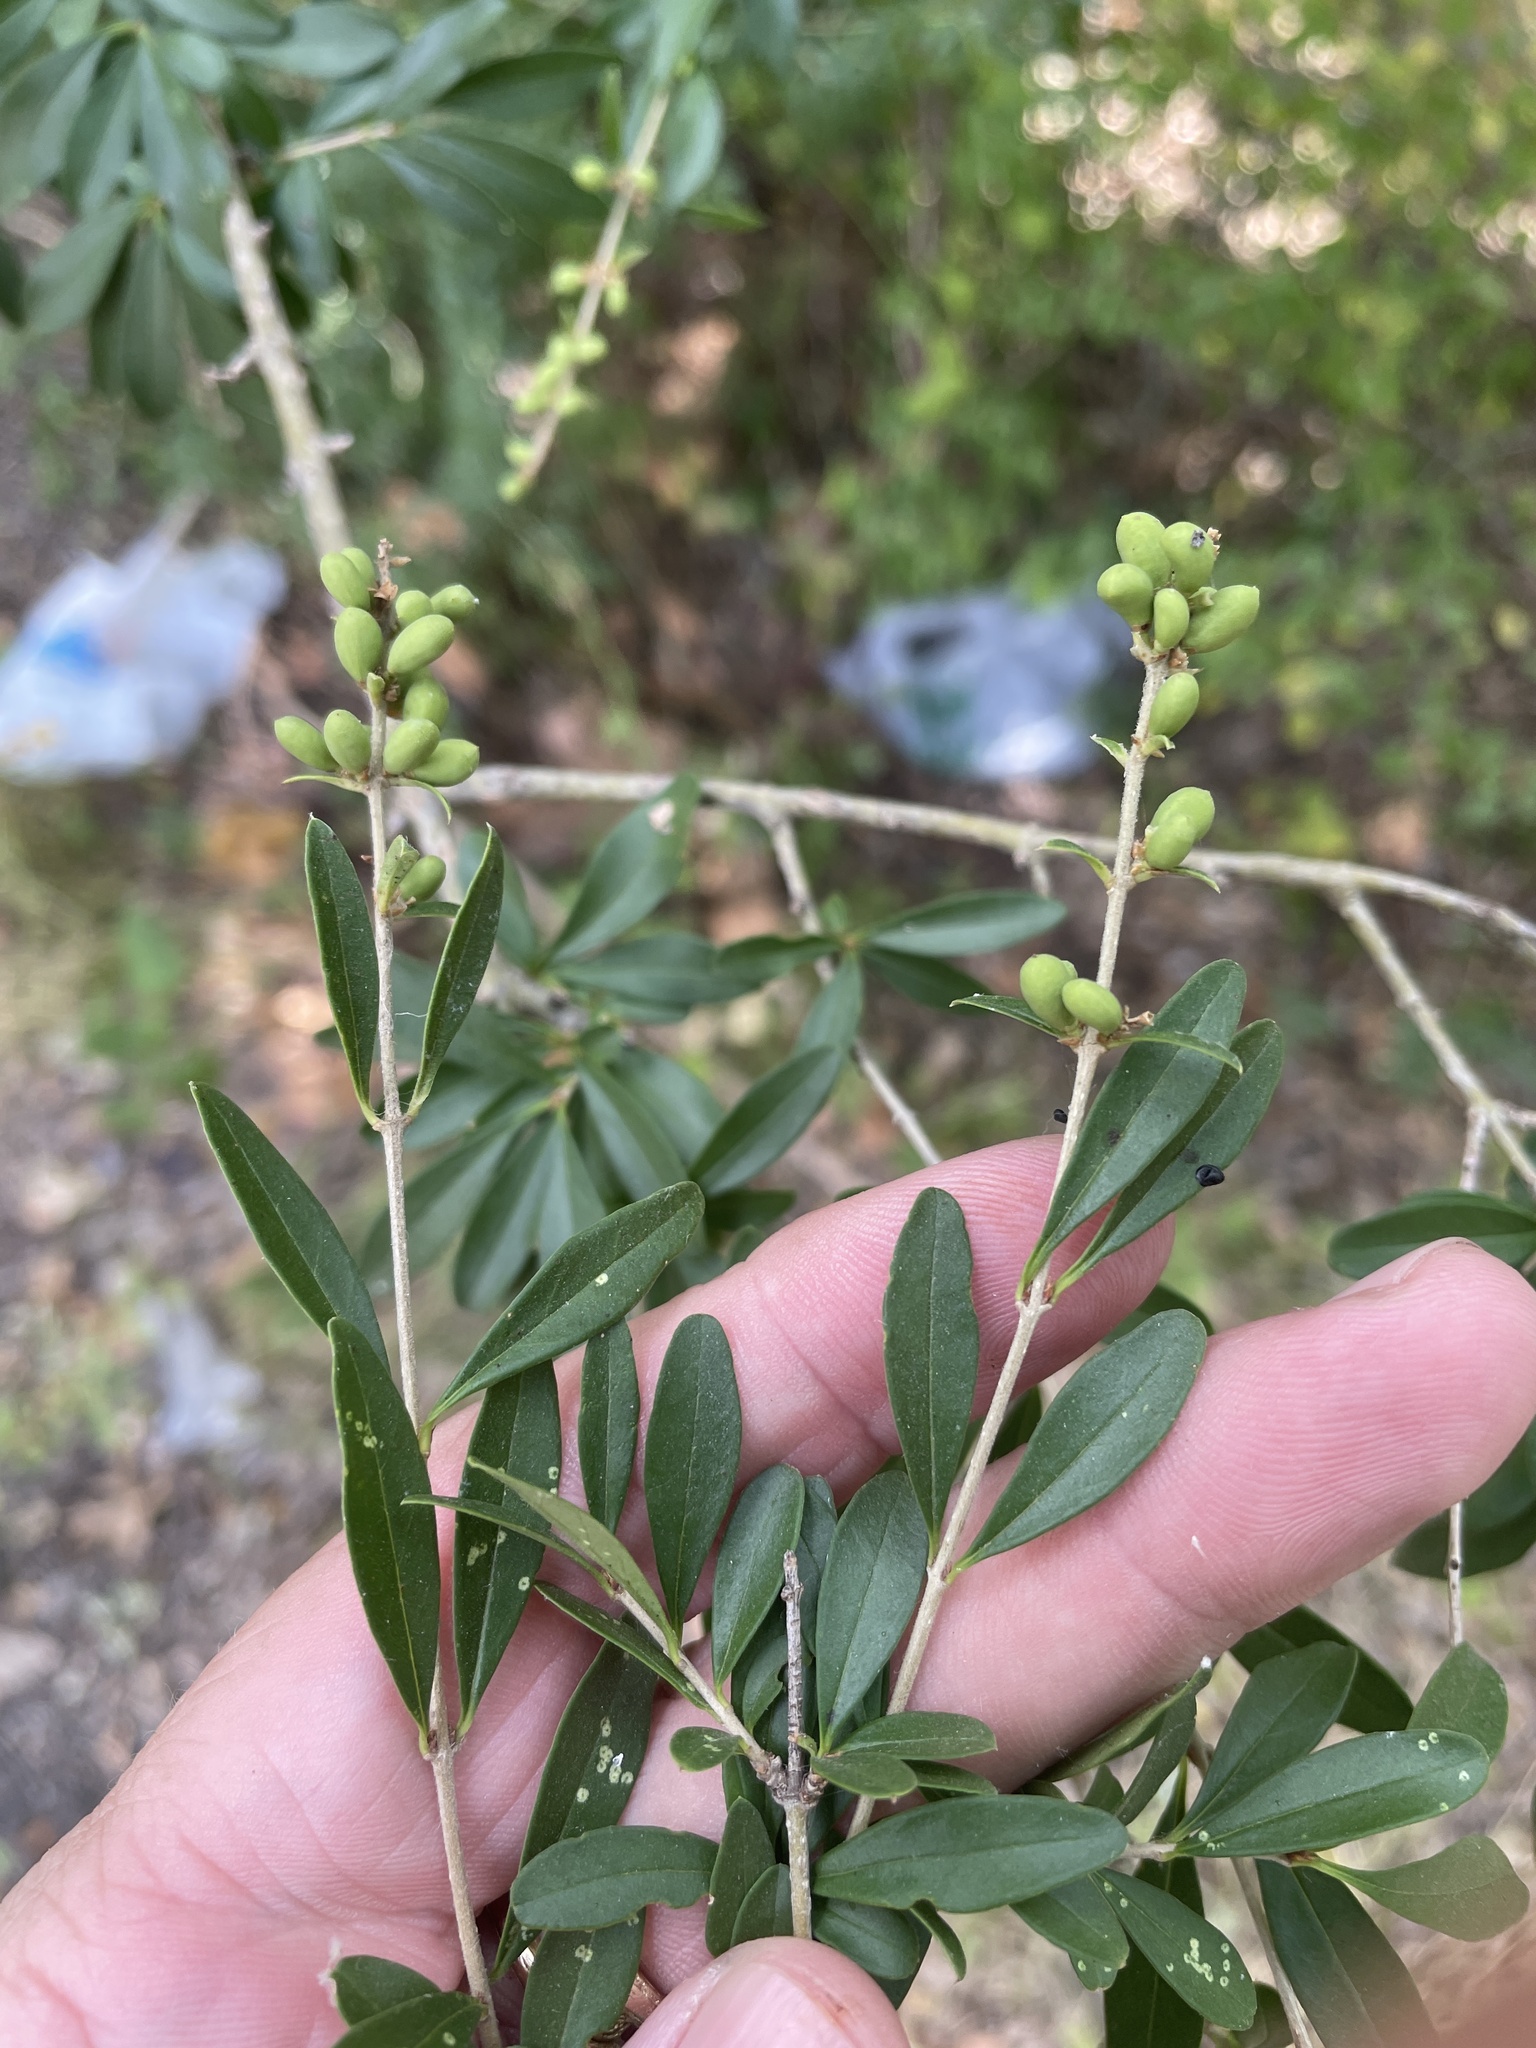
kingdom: Plantae
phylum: Tracheophyta
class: Magnoliopsida
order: Lamiales
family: Oleaceae
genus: Ligustrum
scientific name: Ligustrum quihoui
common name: Waxyleaf privet
